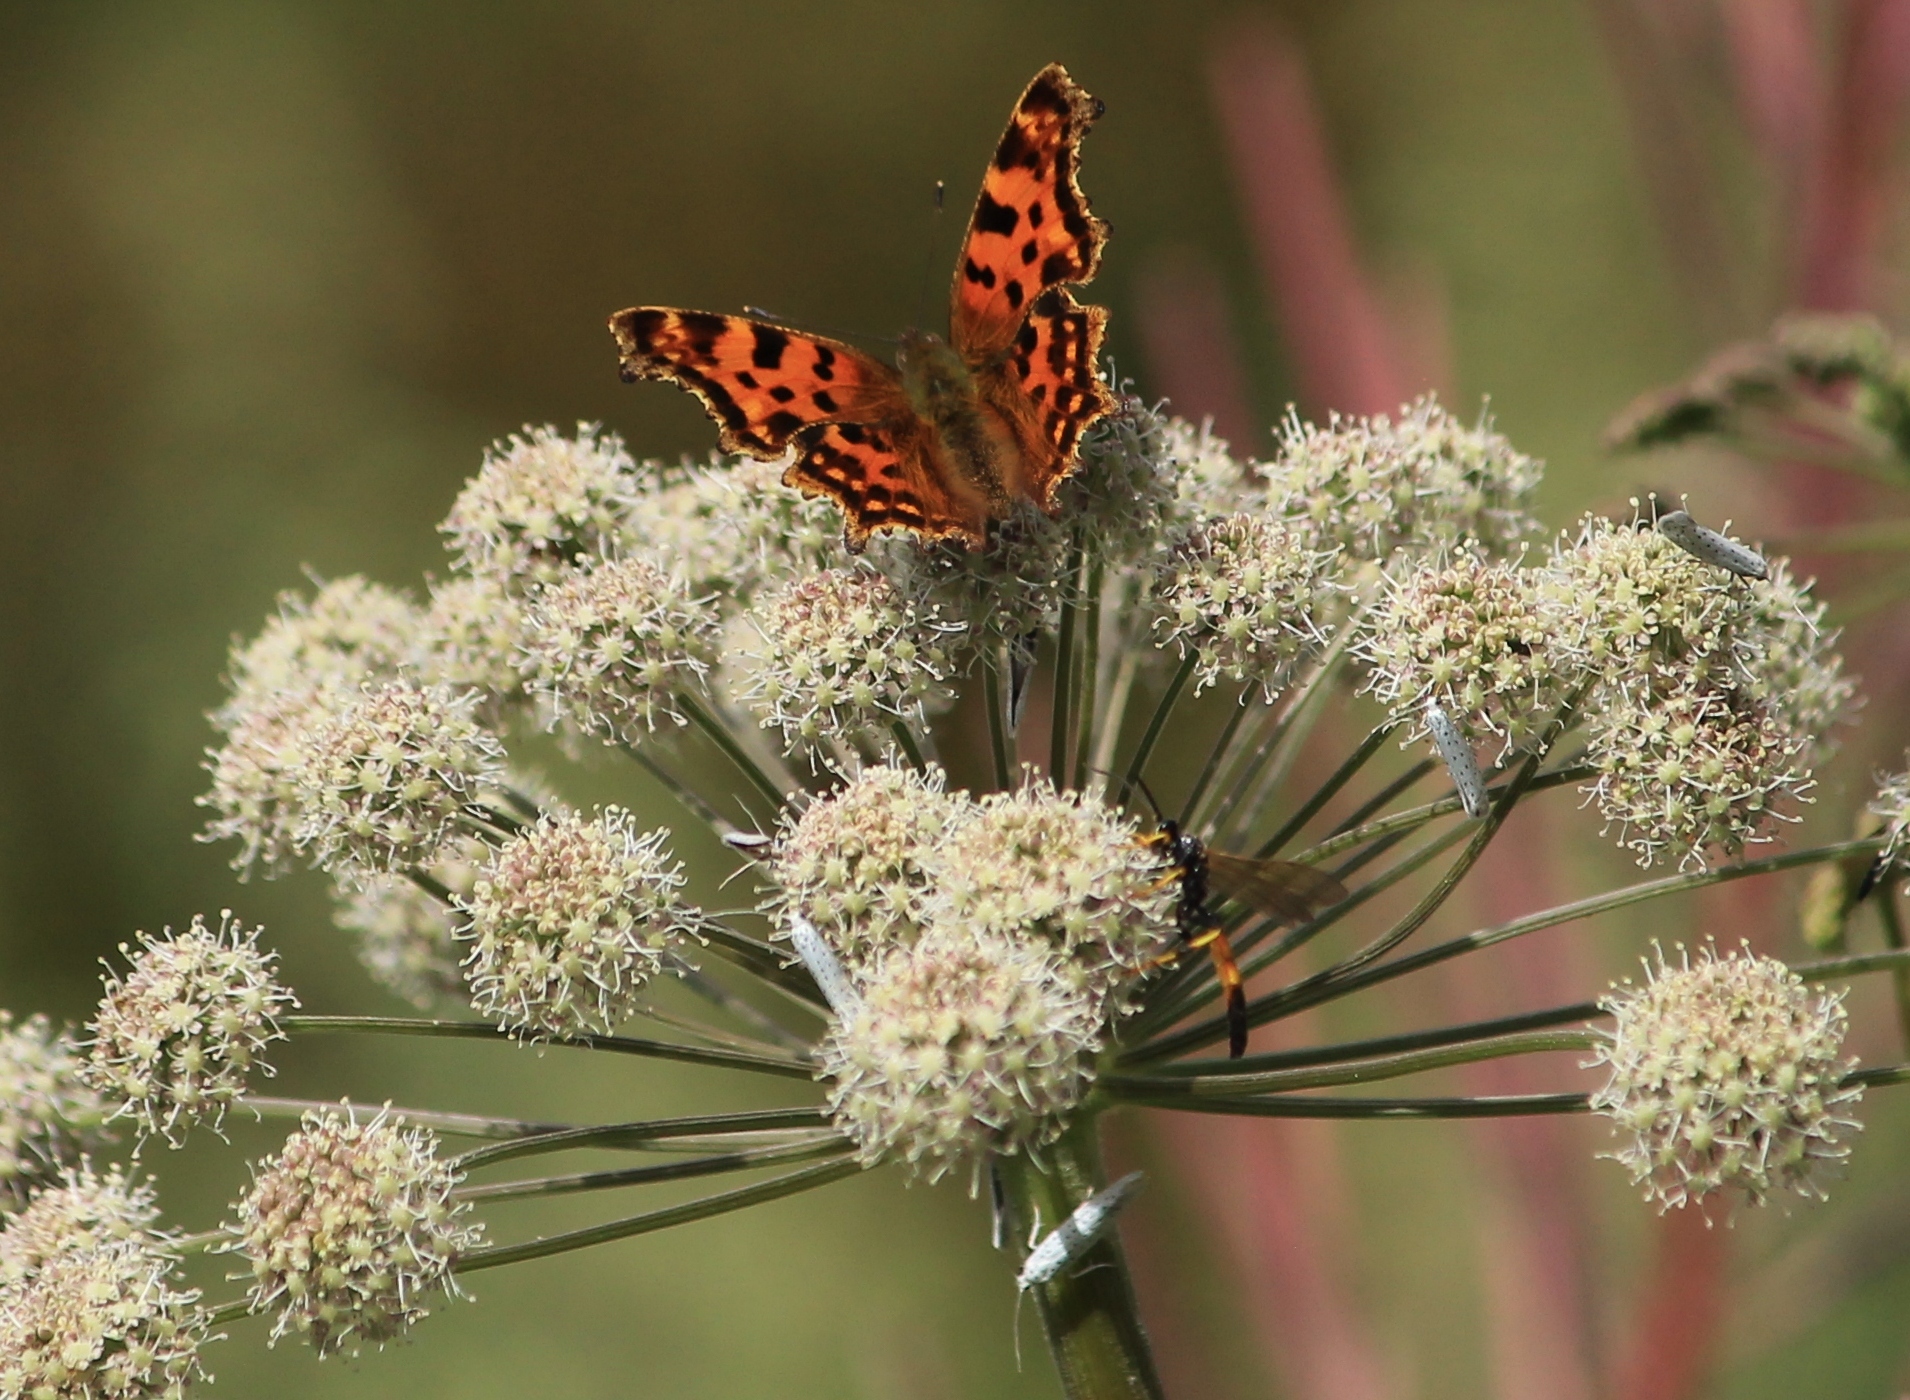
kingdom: Animalia
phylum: Arthropoda
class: Insecta
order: Lepidoptera
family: Nymphalidae
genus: Polygonia
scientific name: Polygonia c-album
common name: Comma
